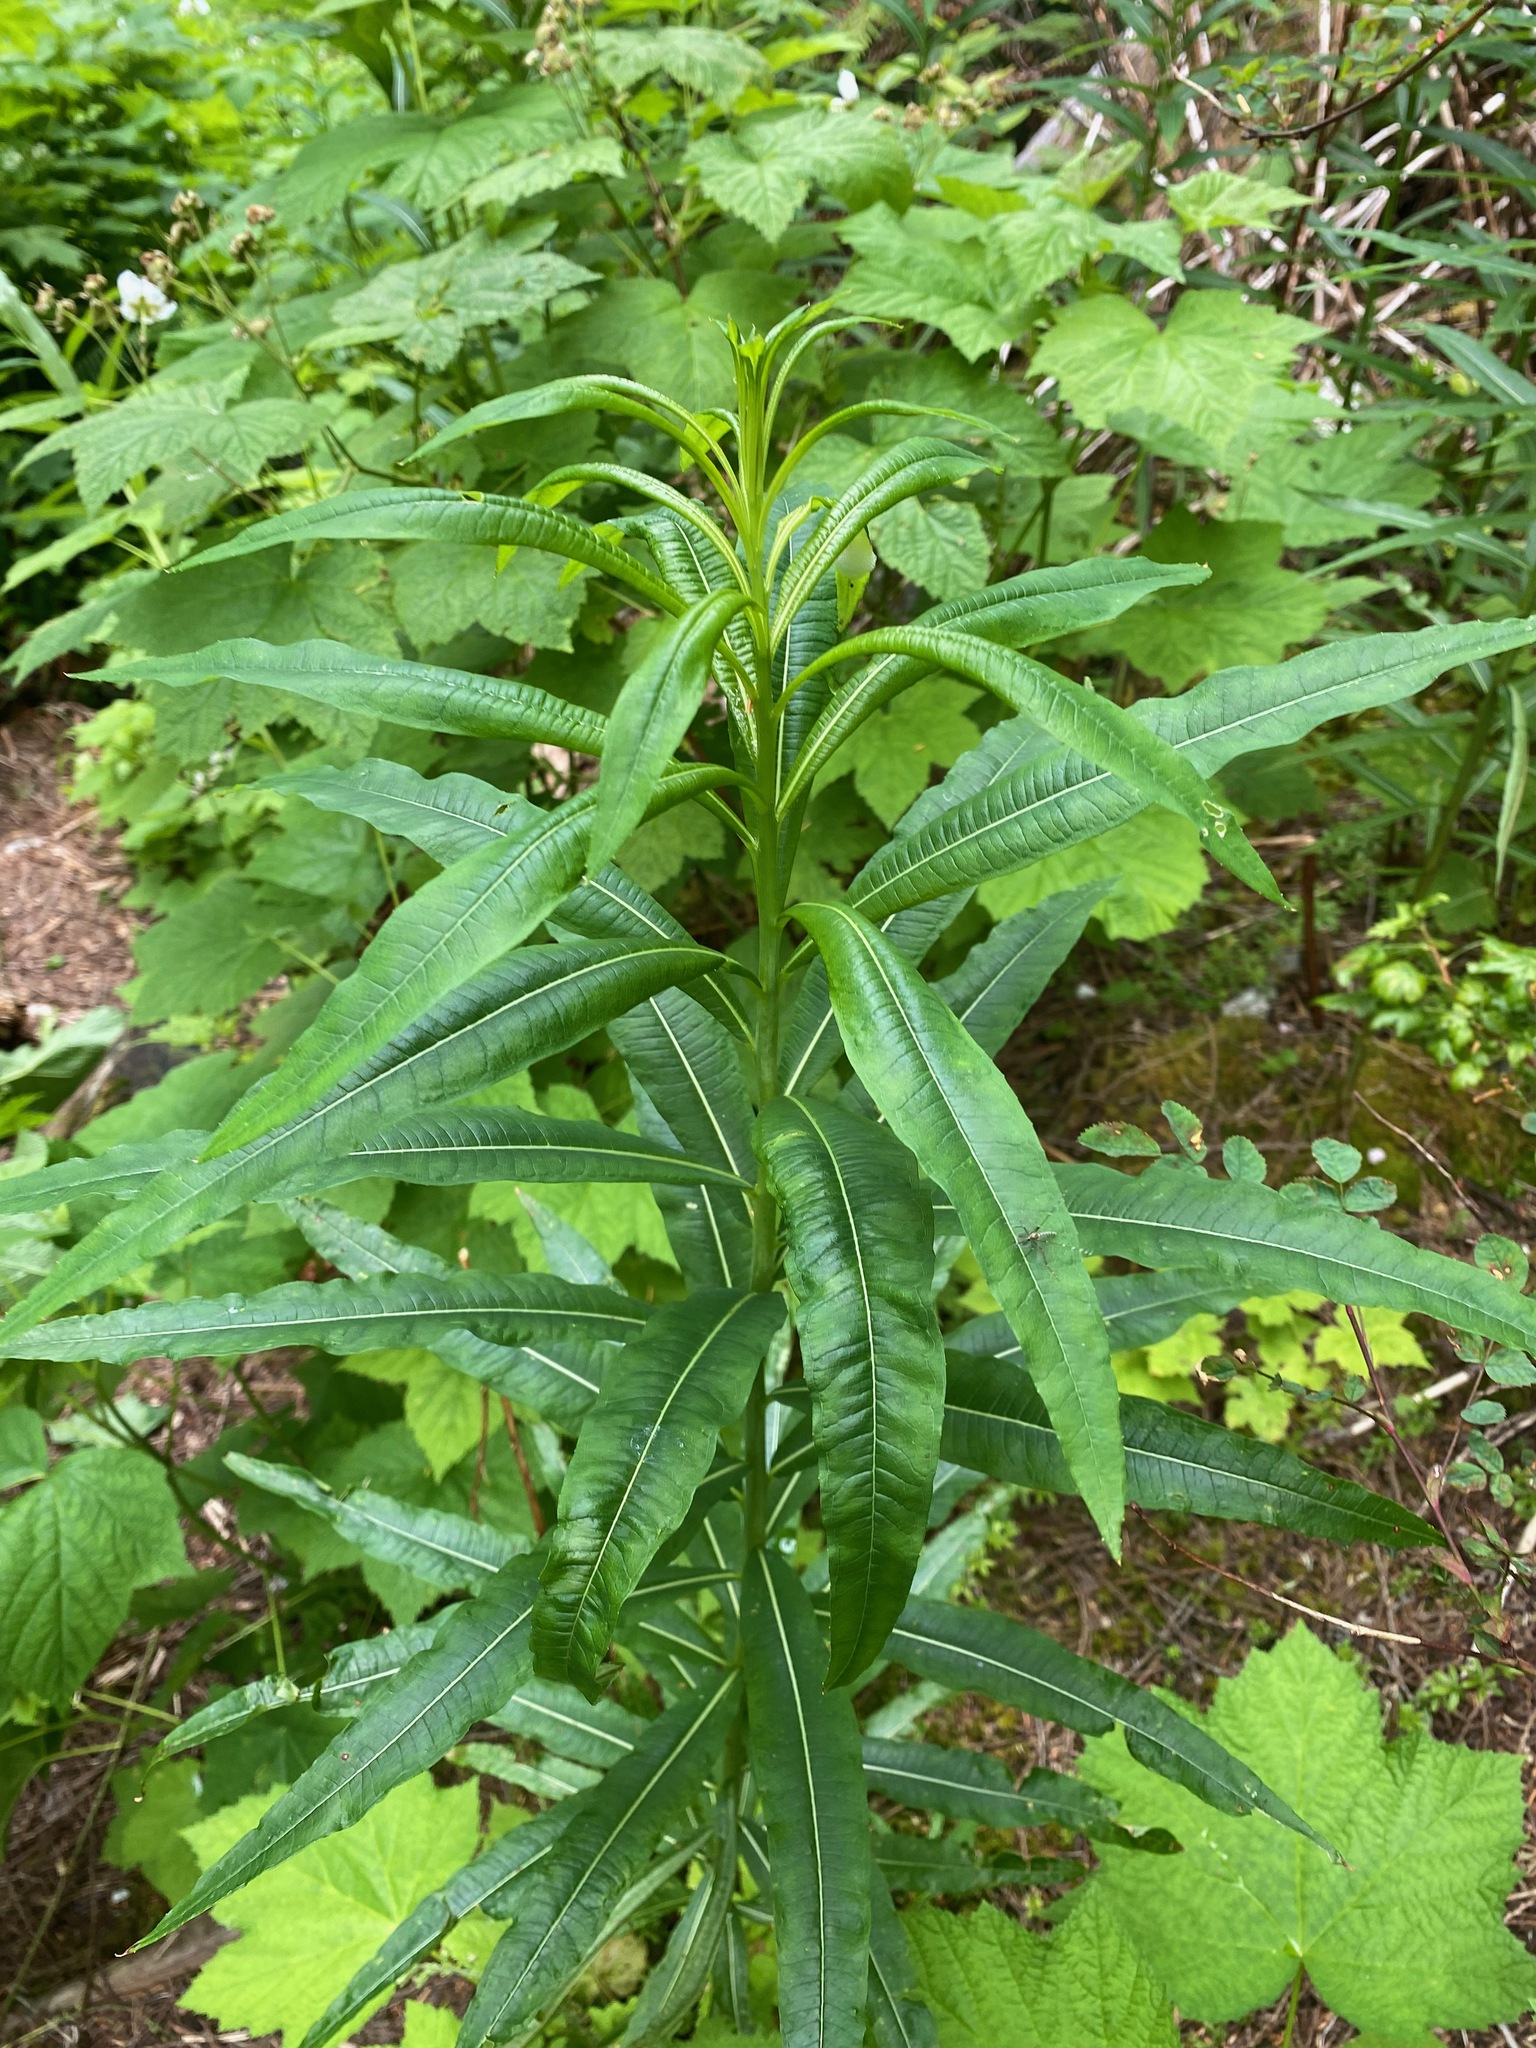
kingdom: Plantae
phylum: Tracheophyta
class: Magnoliopsida
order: Myrtales
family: Onagraceae
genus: Chamaenerion
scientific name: Chamaenerion angustifolium
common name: Fireweed
